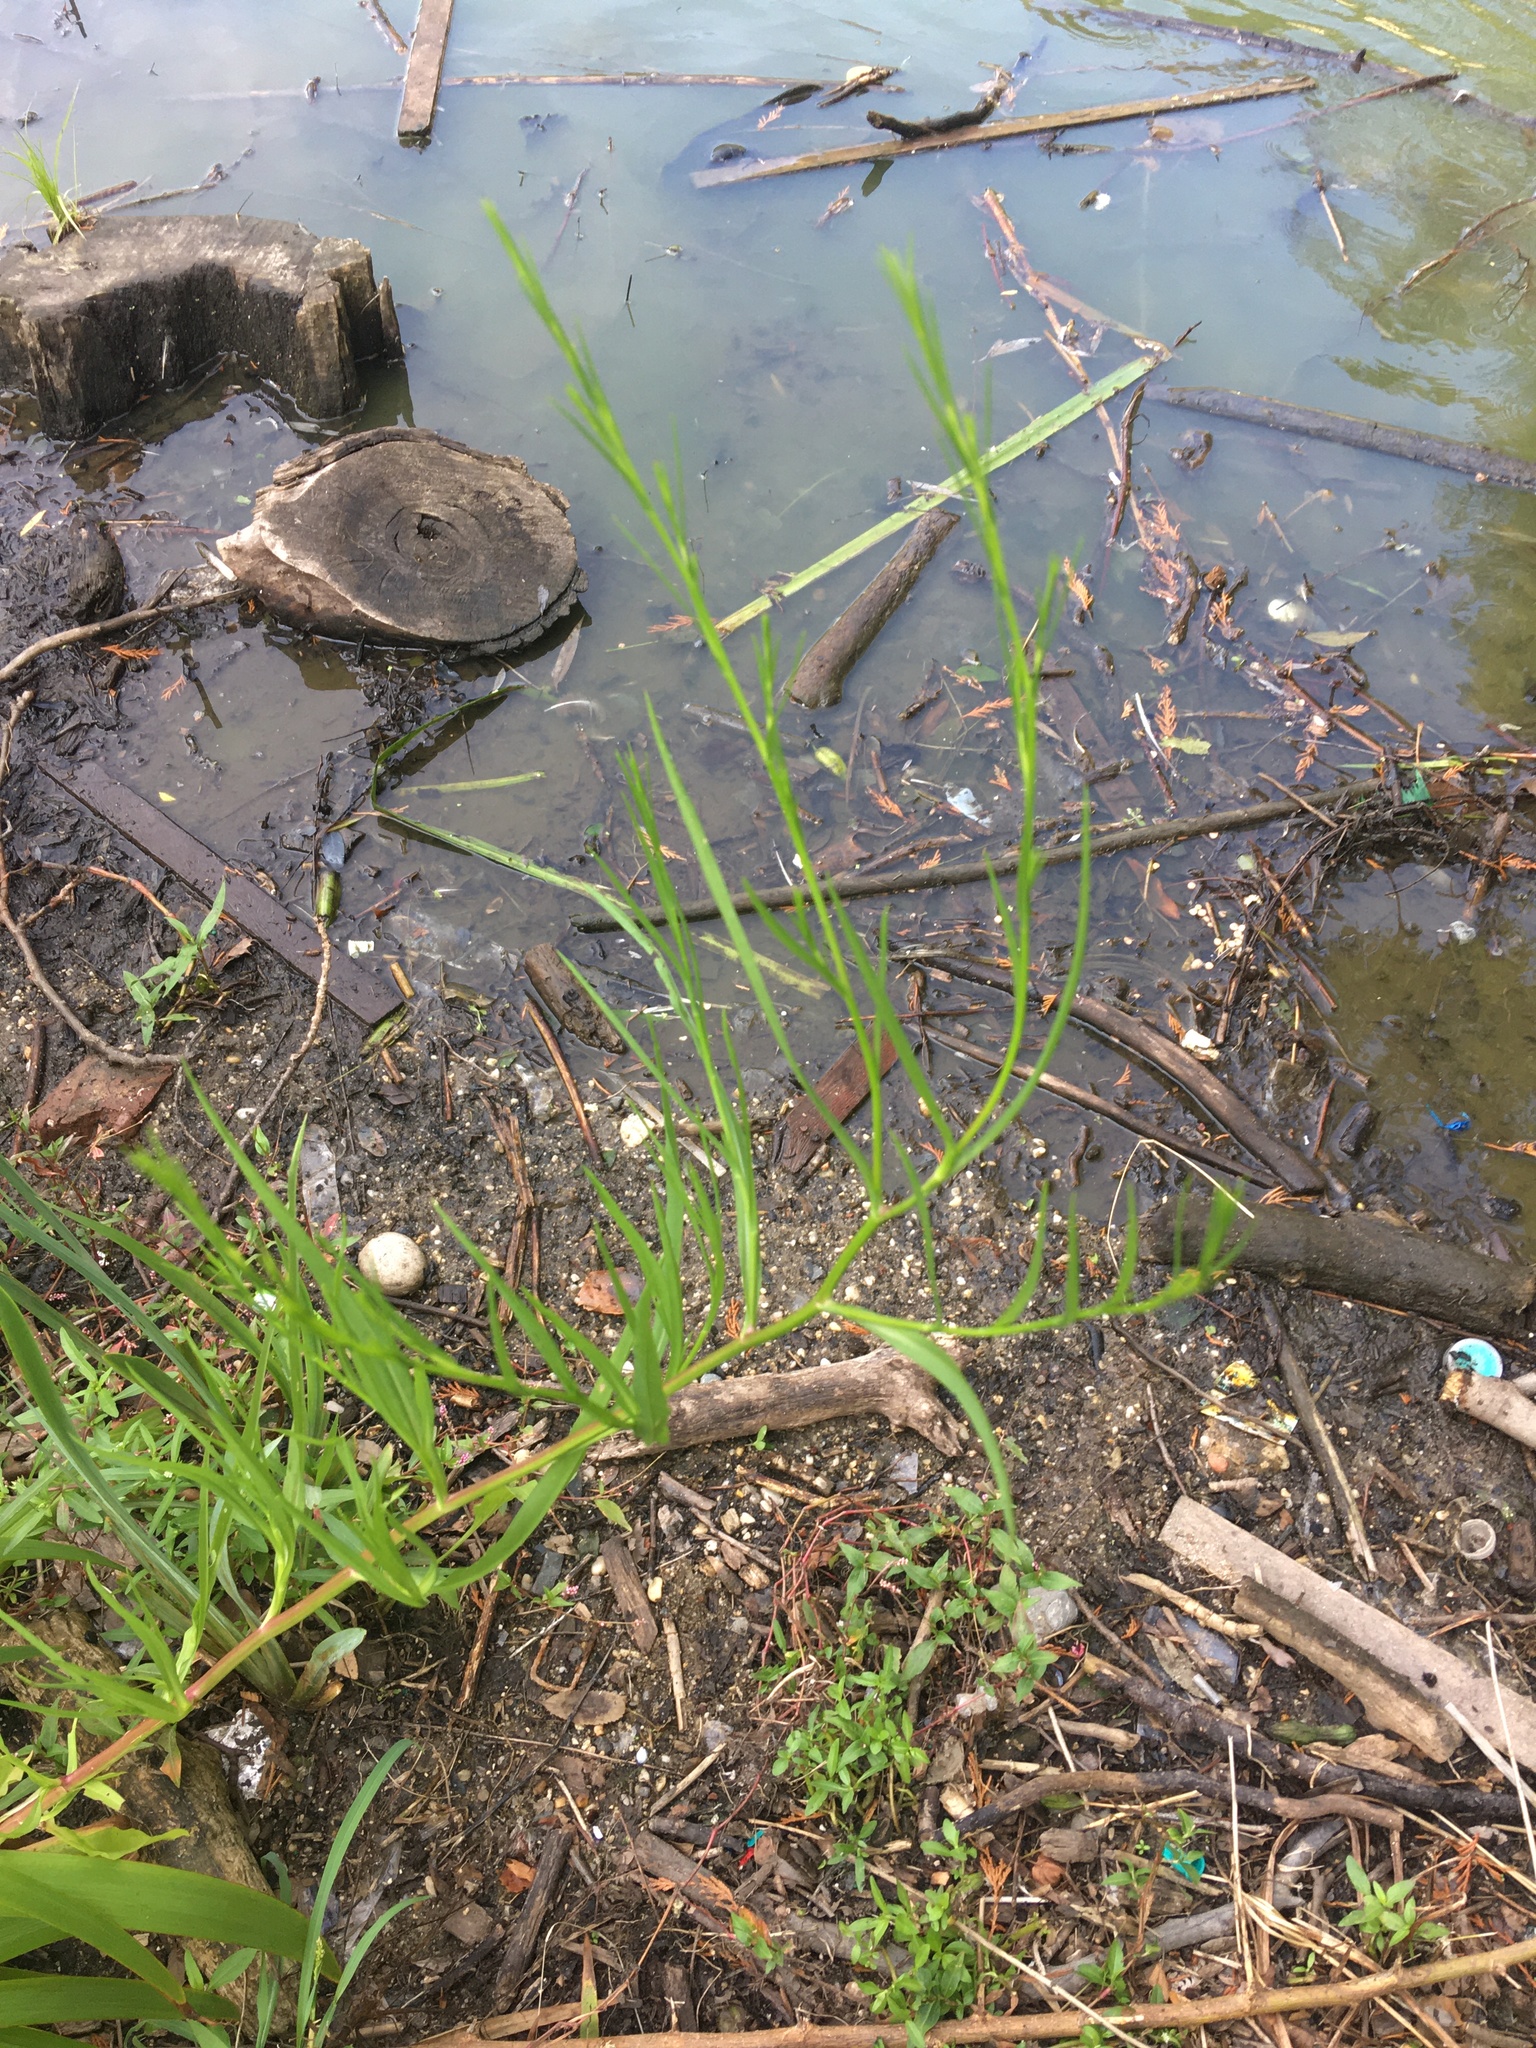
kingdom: Plantae
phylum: Tracheophyta
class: Magnoliopsida
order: Asterales
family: Asteraceae
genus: Symphyotrichum
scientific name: Symphyotrichum divaricatum
